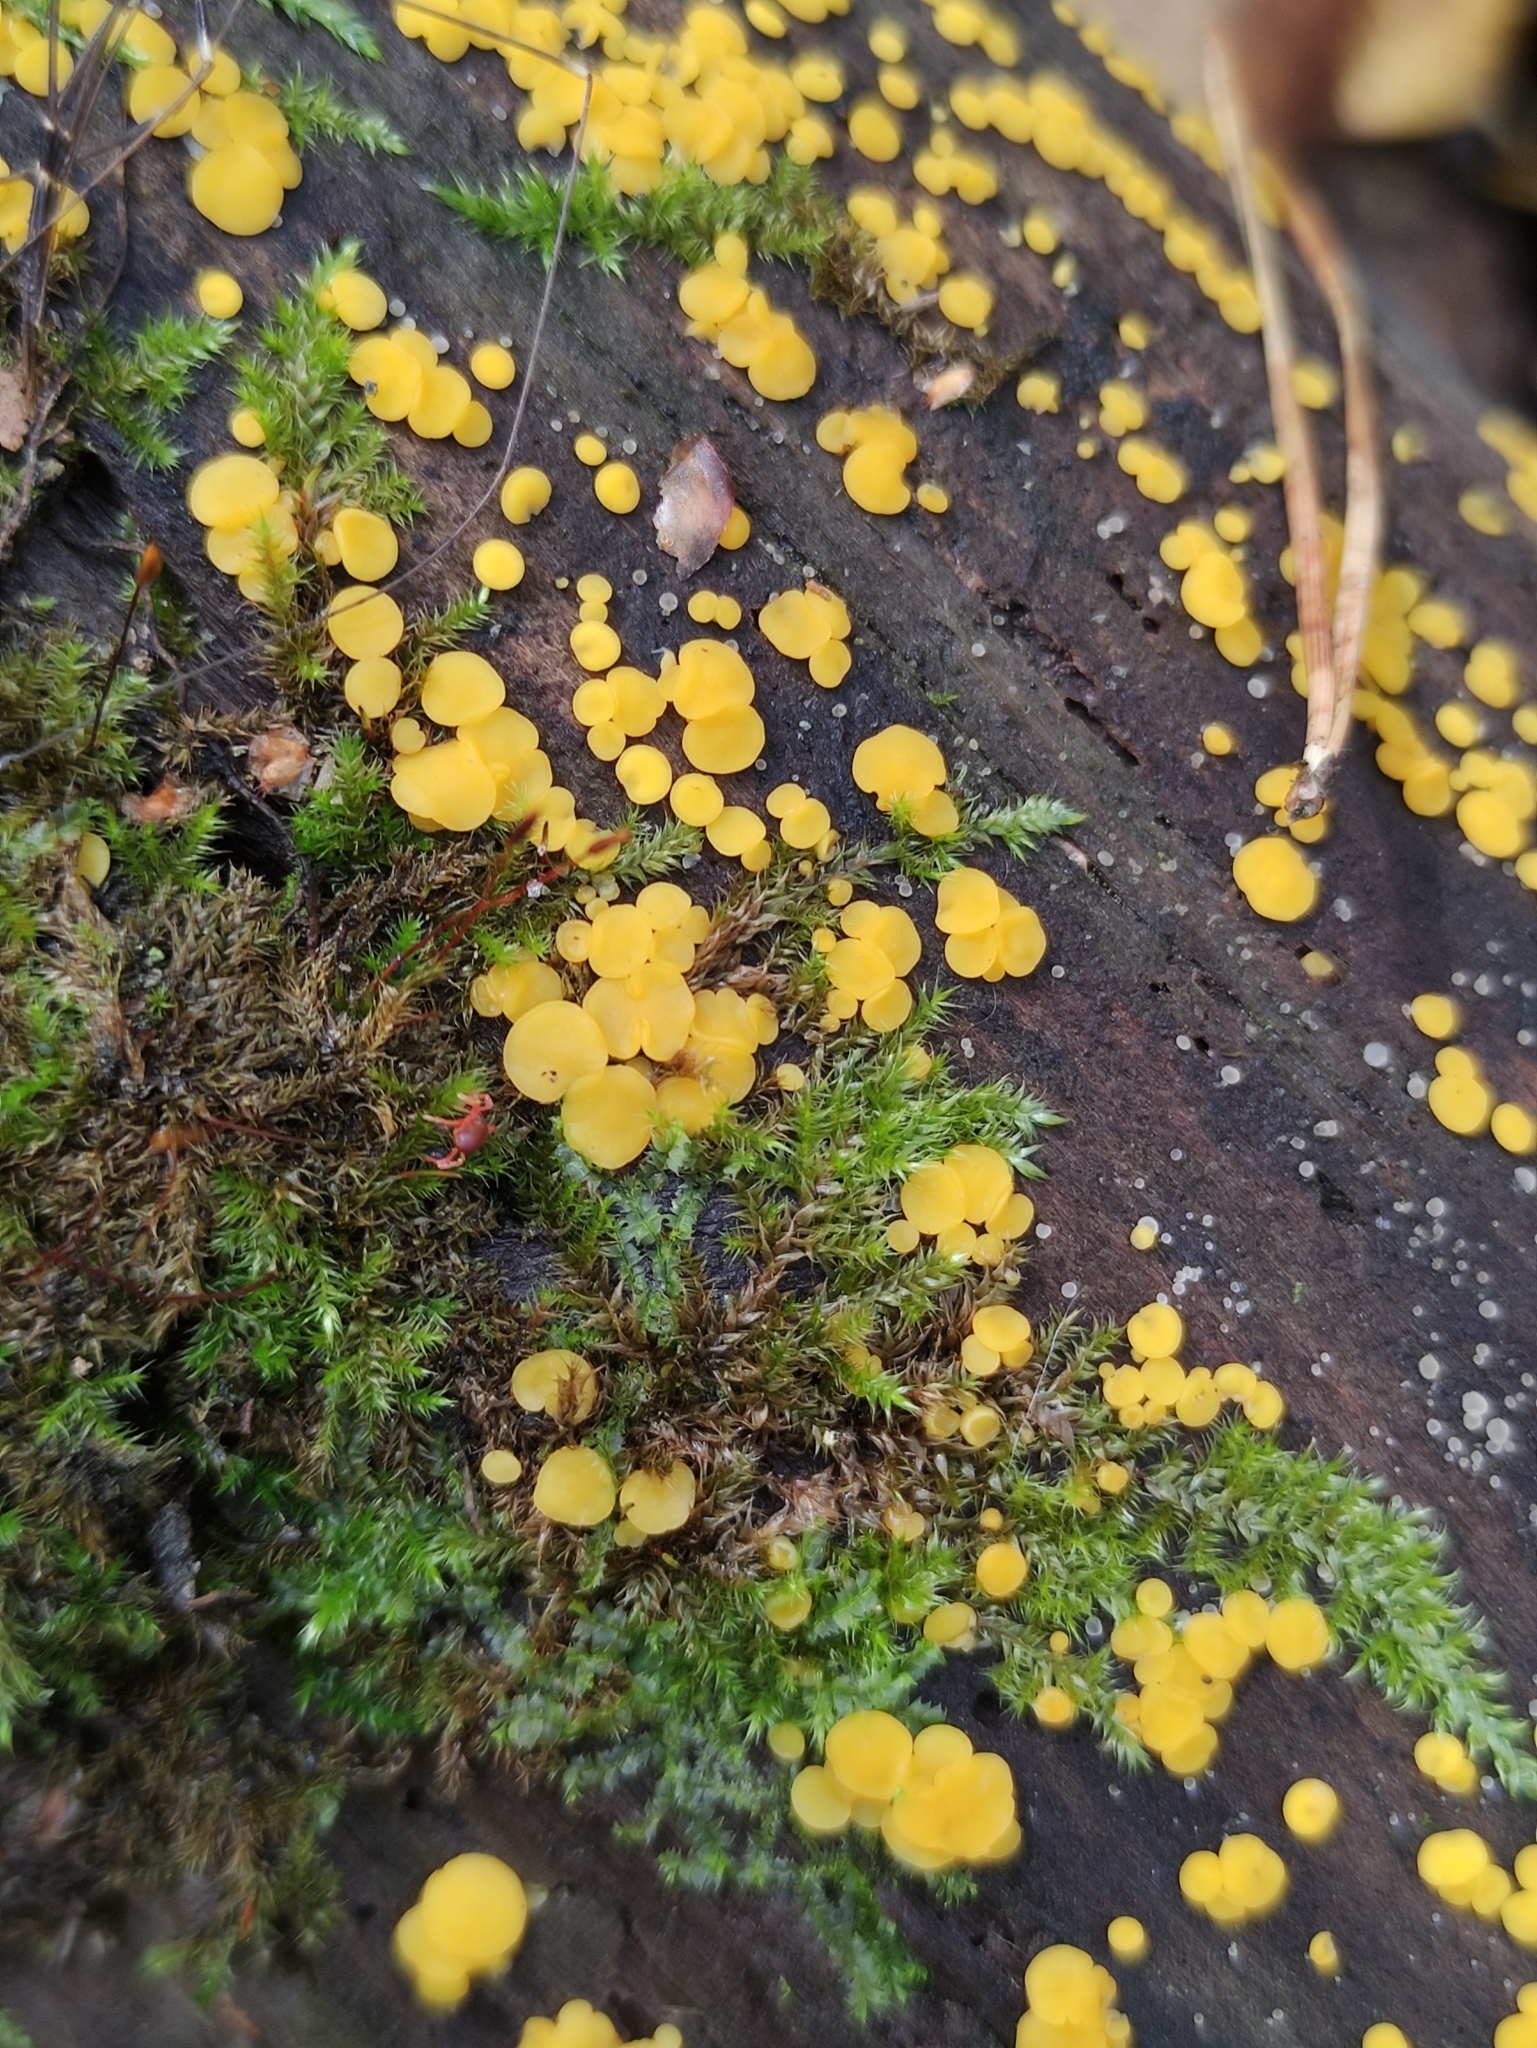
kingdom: Fungi
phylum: Ascomycota
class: Leotiomycetes
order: Helotiales
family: Pezizellaceae
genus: Calycina
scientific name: Calycina citrina
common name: Yellow fairy cups
